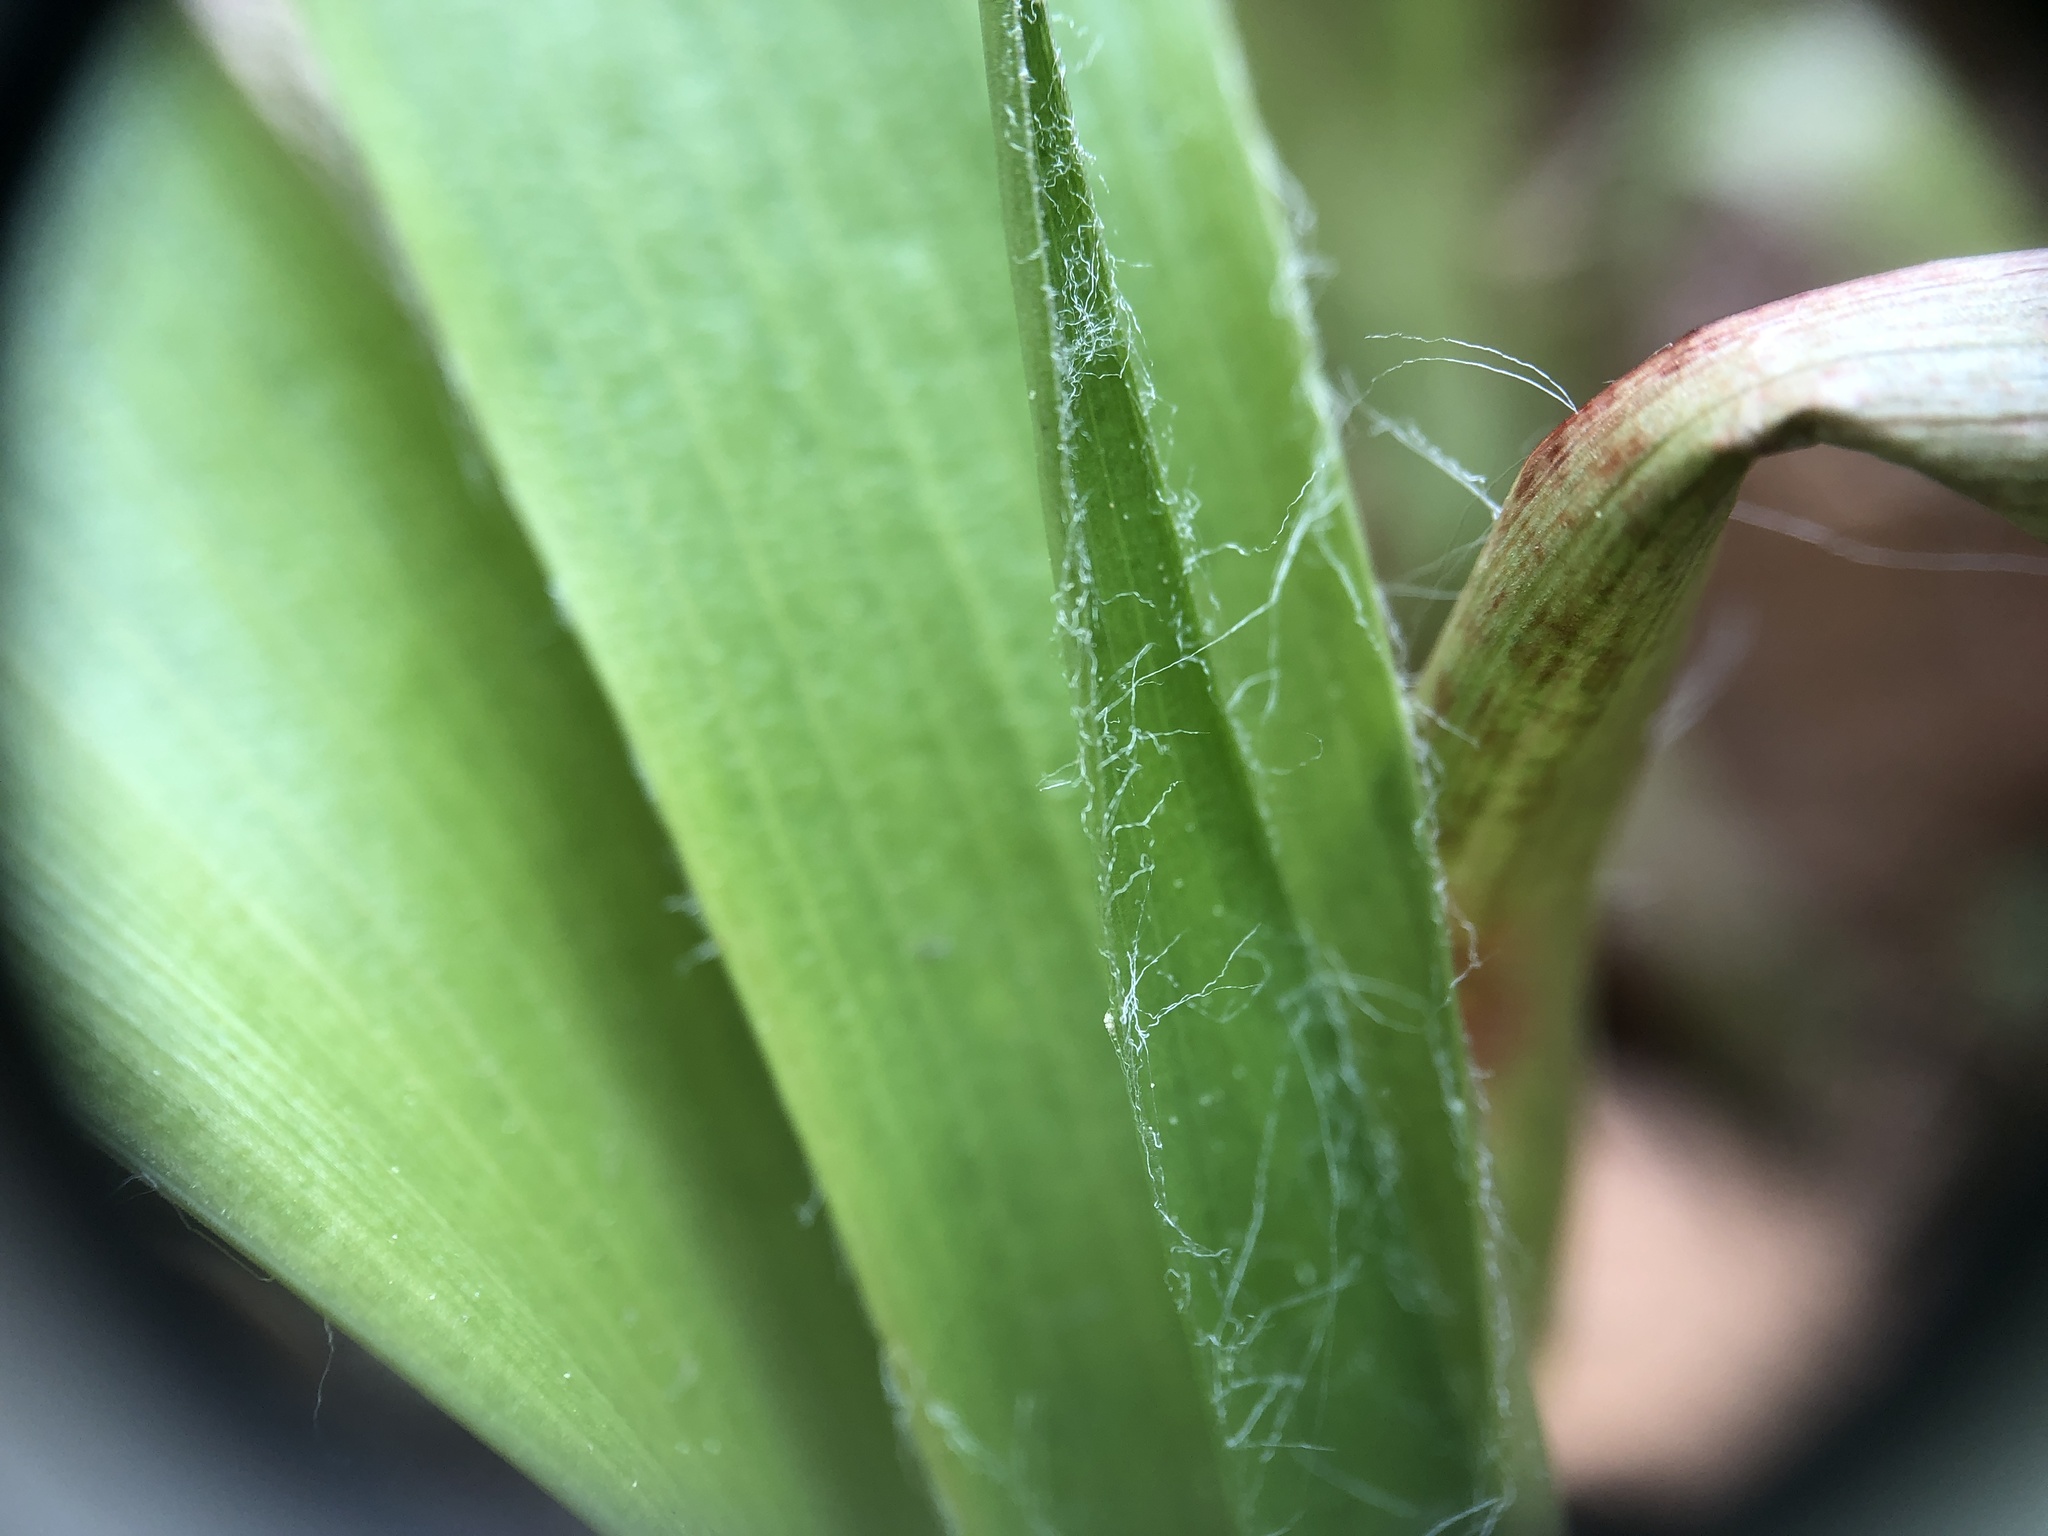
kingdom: Plantae
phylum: Tracheophyta
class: Liliopsida
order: Poales
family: Juncaceae
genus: Luzula
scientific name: Luzula acuminata
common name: Hairy woodrush
